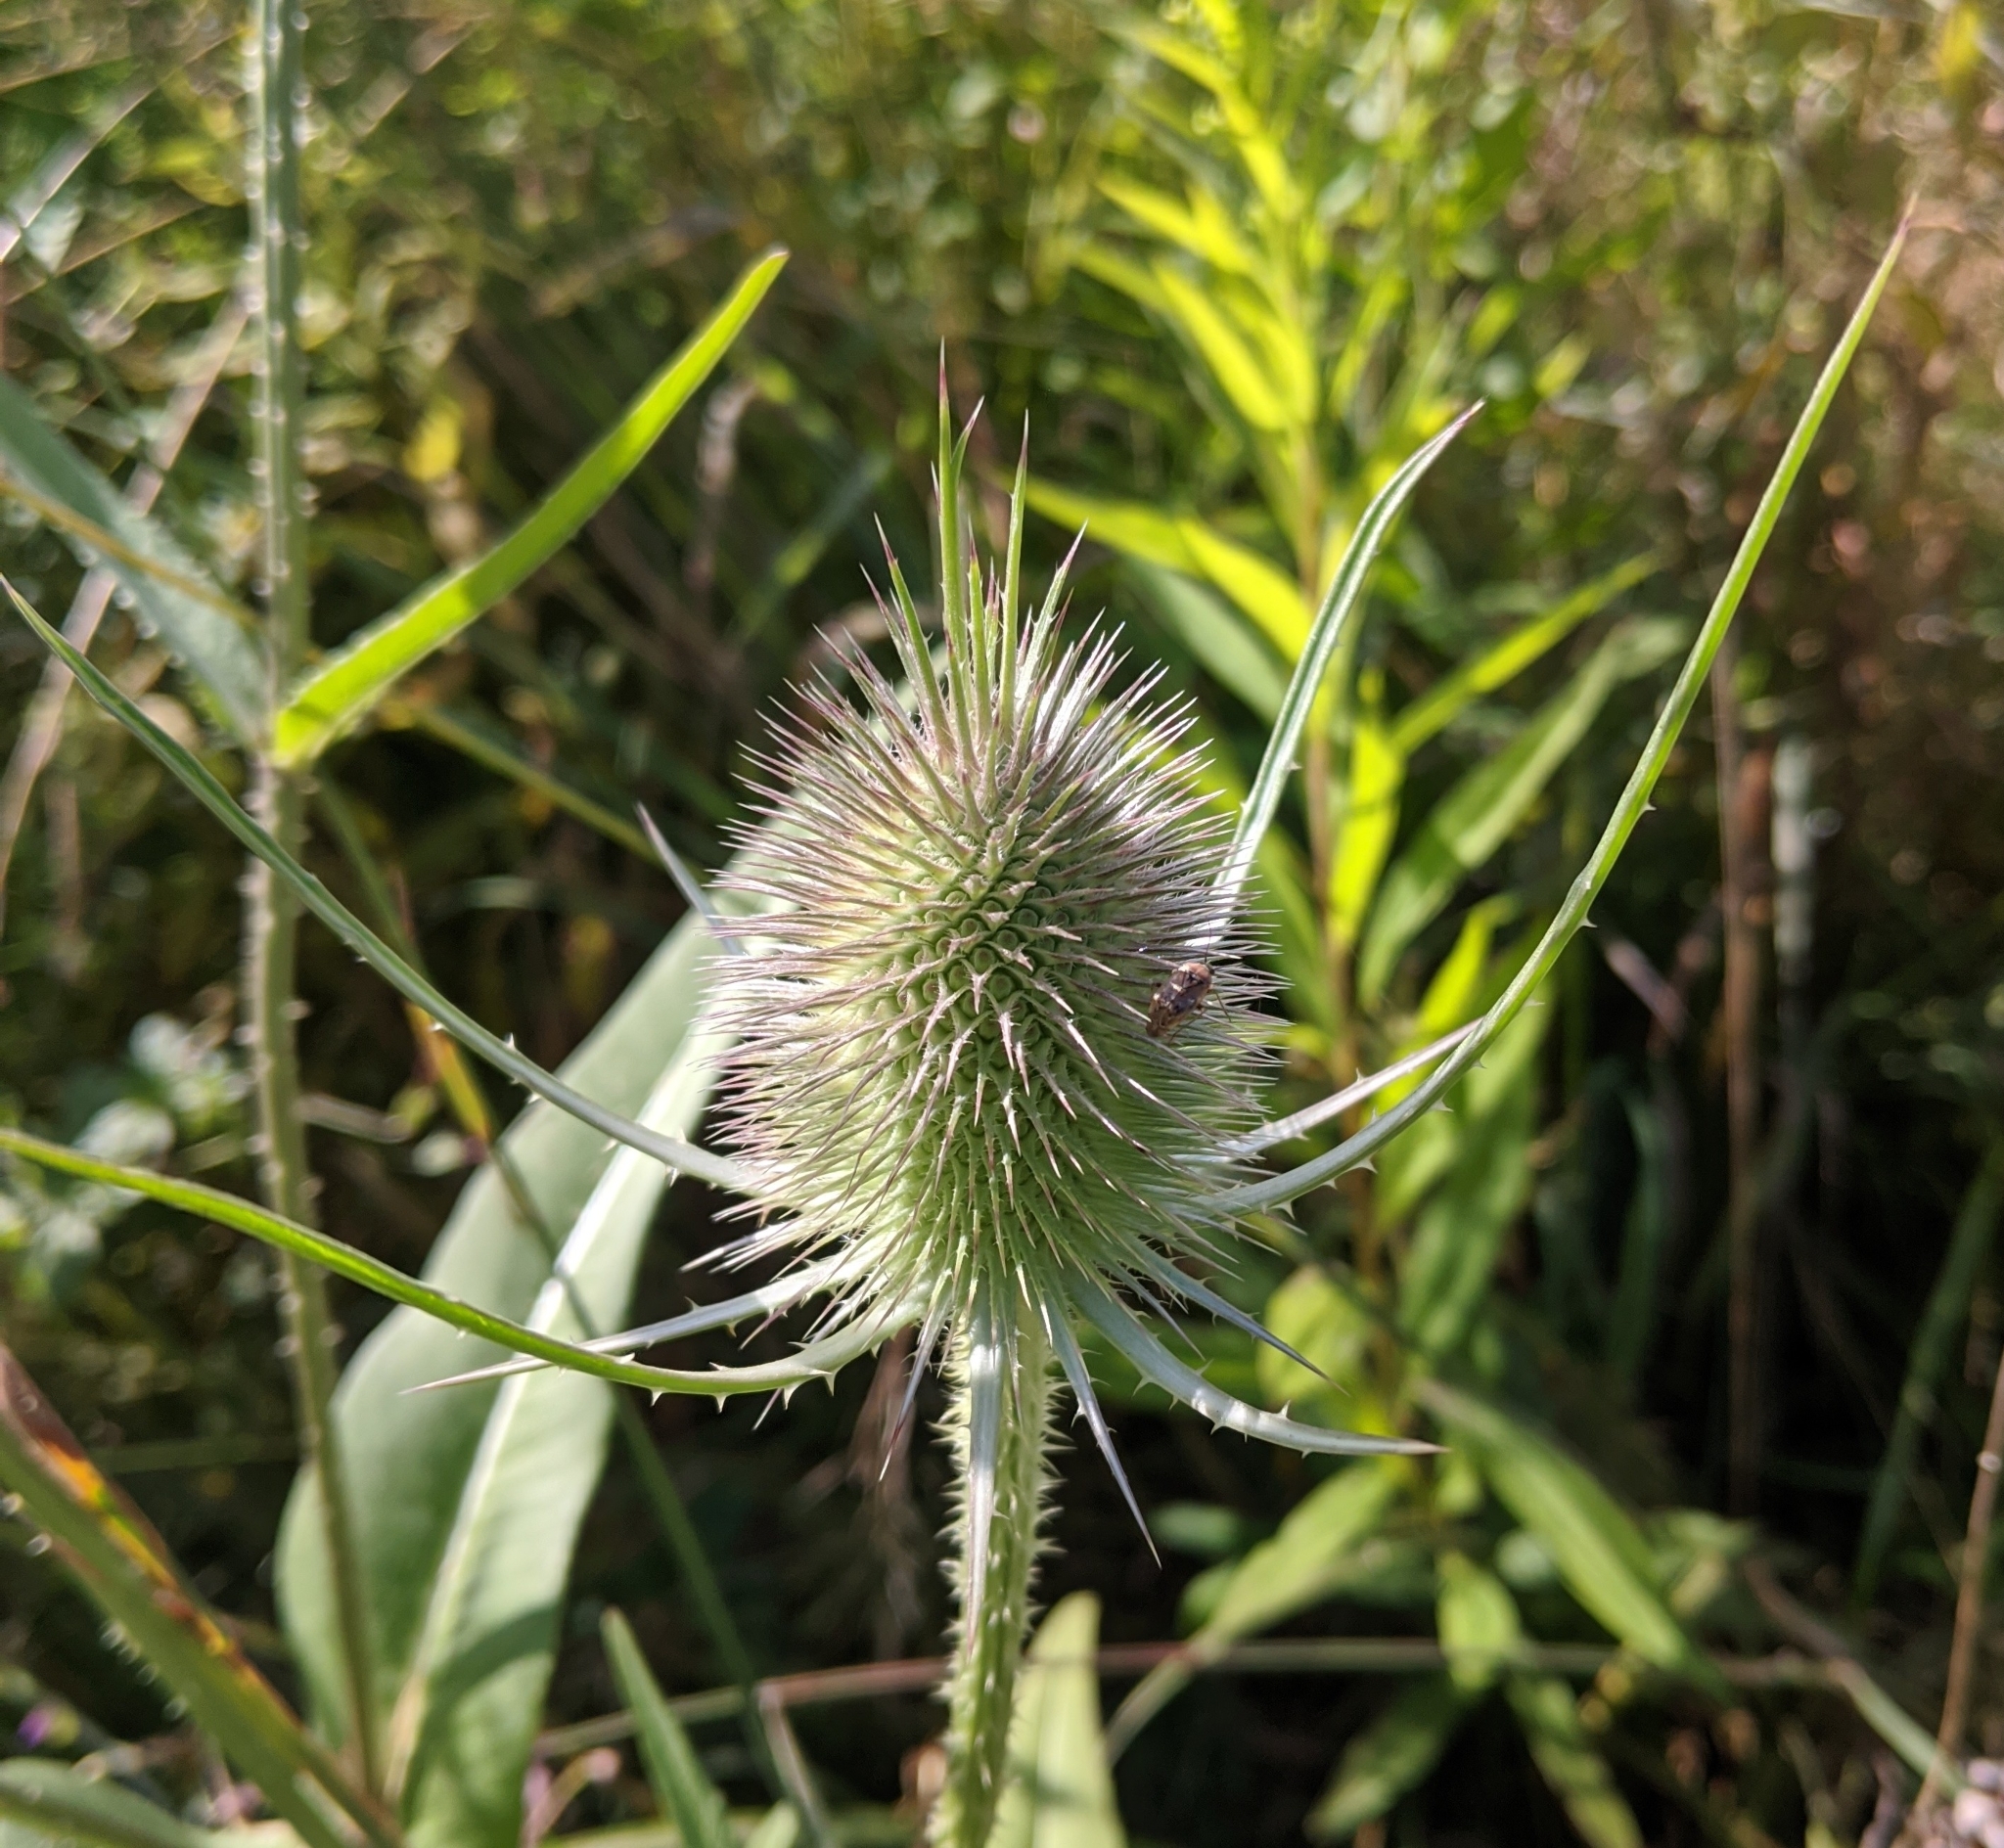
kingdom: Plantae
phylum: Tracheophyta
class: Magnoliopsida
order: Dipsacales
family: Caprifoliaceae
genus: Dipsacus
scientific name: Dipsacus fullonum
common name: Teasel
